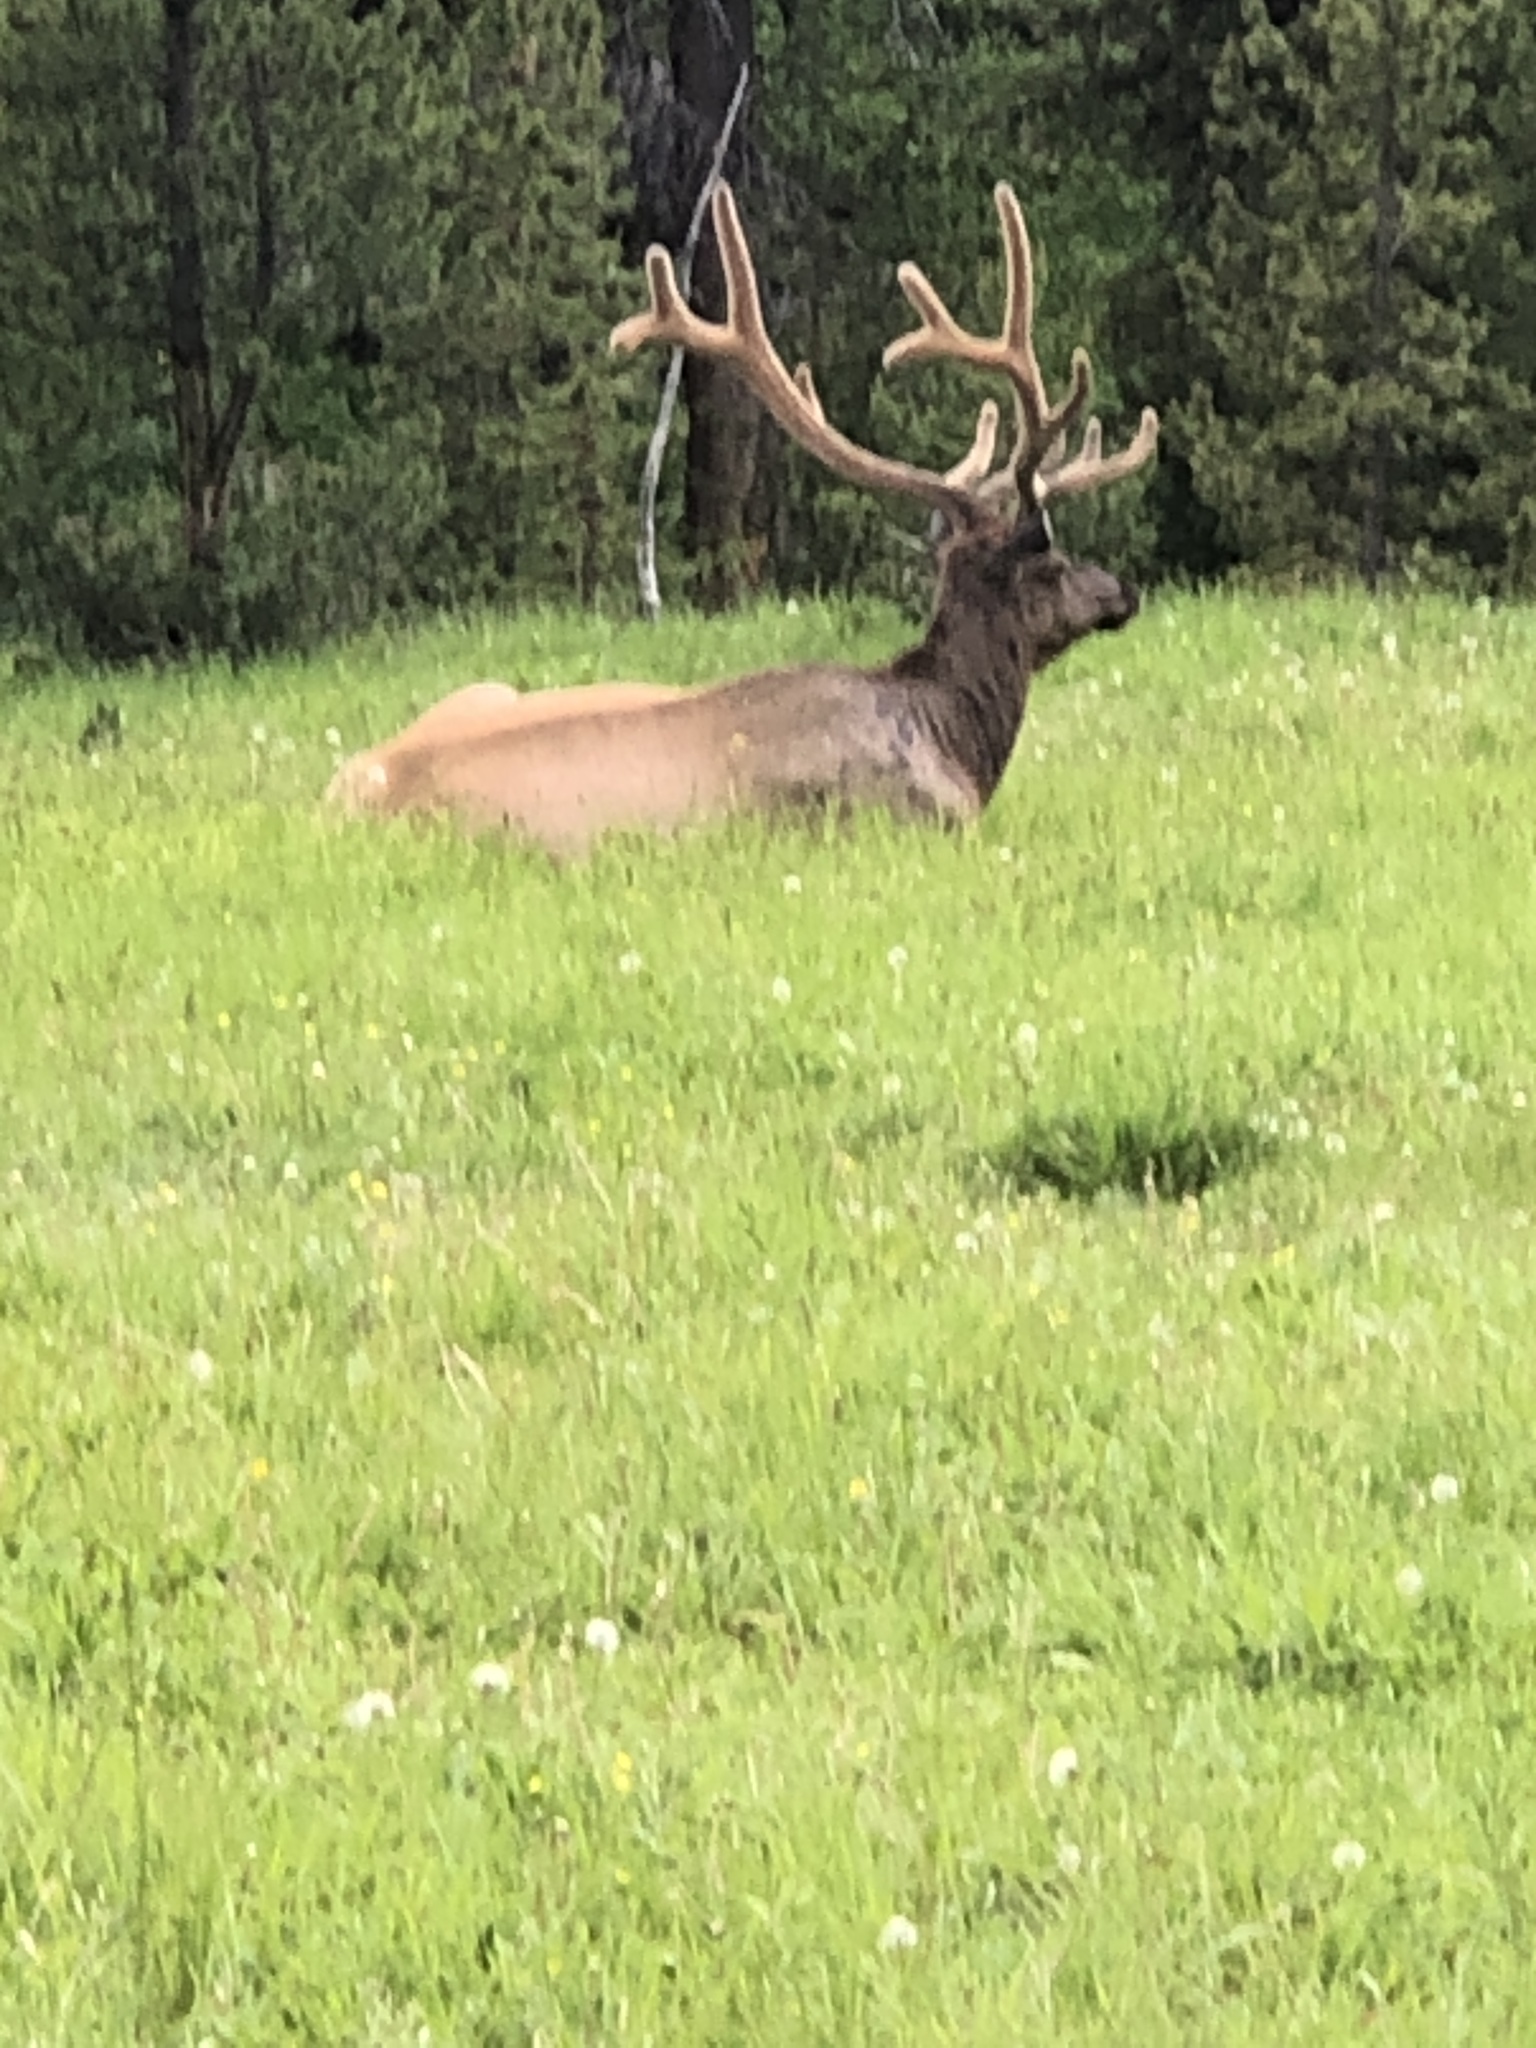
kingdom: Animalia
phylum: Chordata
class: Mammalia
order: Artiodactyla
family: Cervidae
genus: Cervus
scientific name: Cervus elaphus
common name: Red deer
